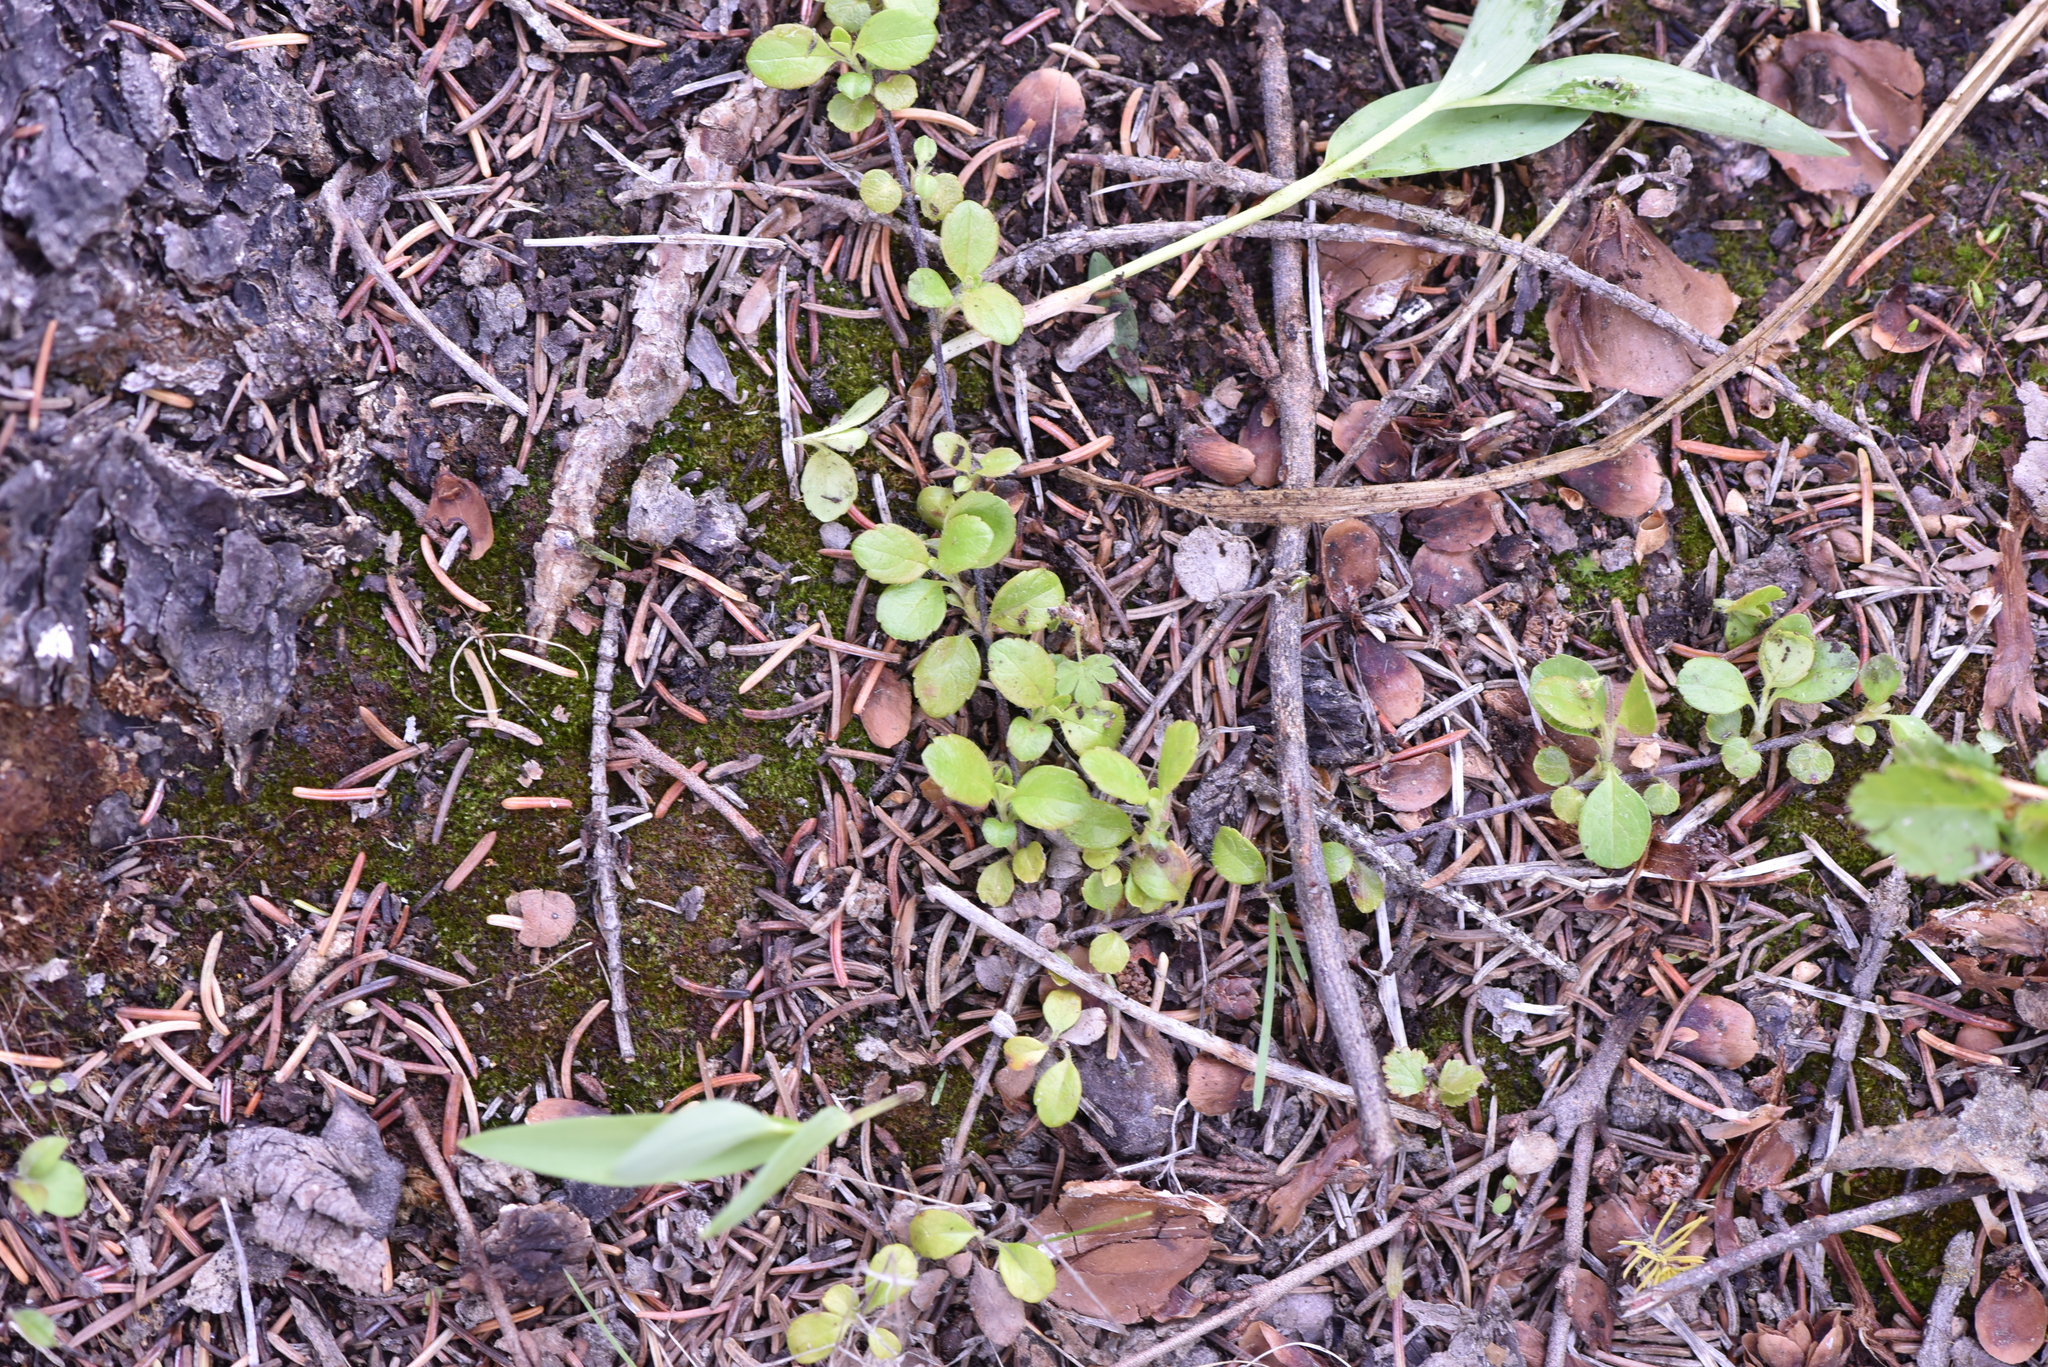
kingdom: Plantae
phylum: Tracheophyta
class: Magnoliopsida
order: Dipsacales
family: Caprifoliaceae
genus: Linnaea
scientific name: Linnaea borealis
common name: Twinflower
